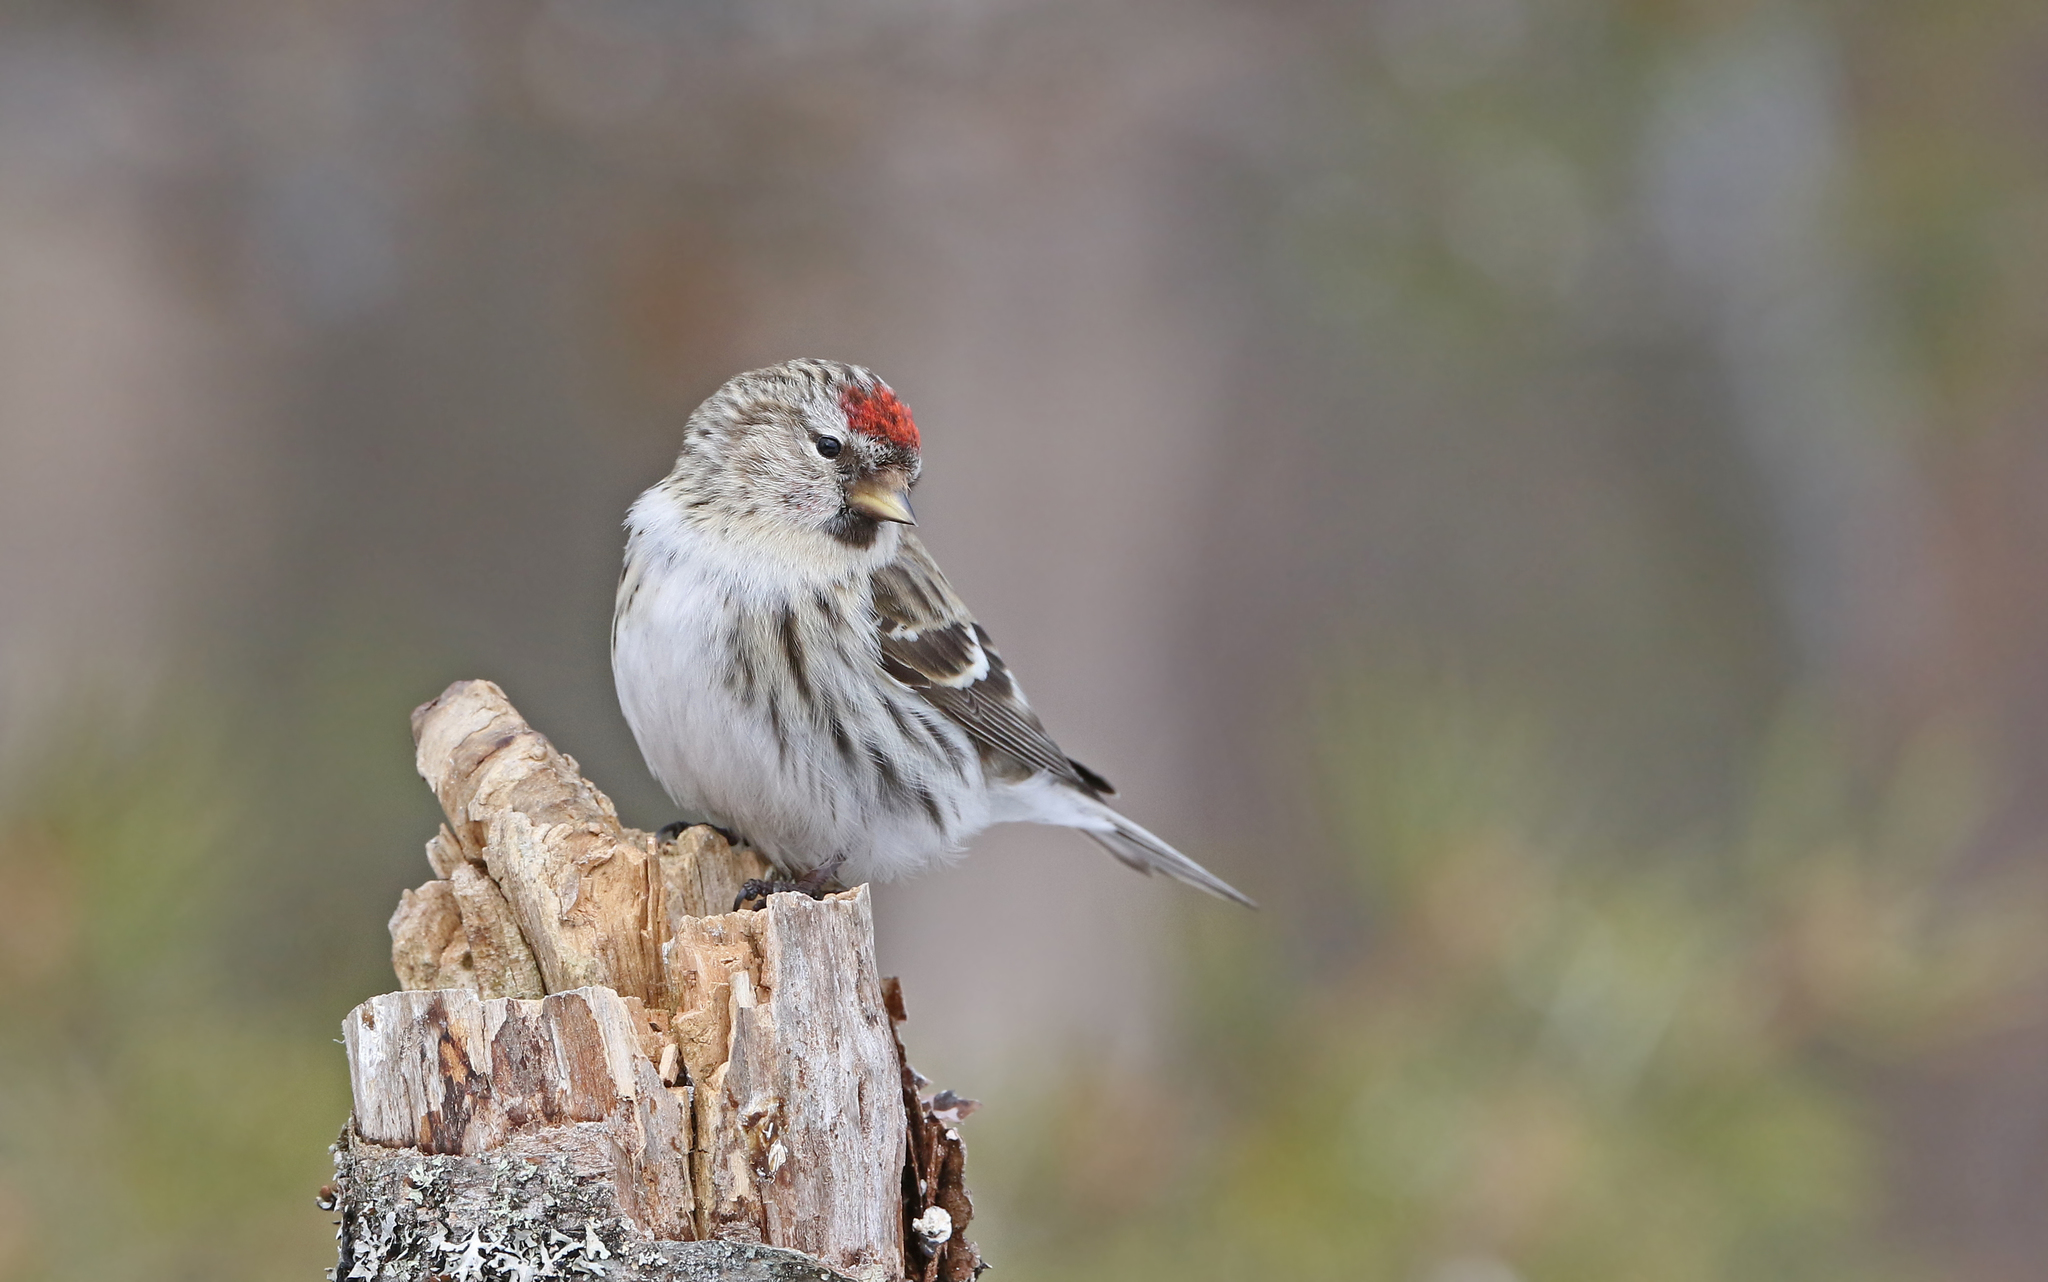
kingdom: Animalia
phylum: Chordata
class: Aves
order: Passeriformes
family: Fringillidae
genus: Acanthis
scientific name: Acanthis flammea
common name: Common redpoll
